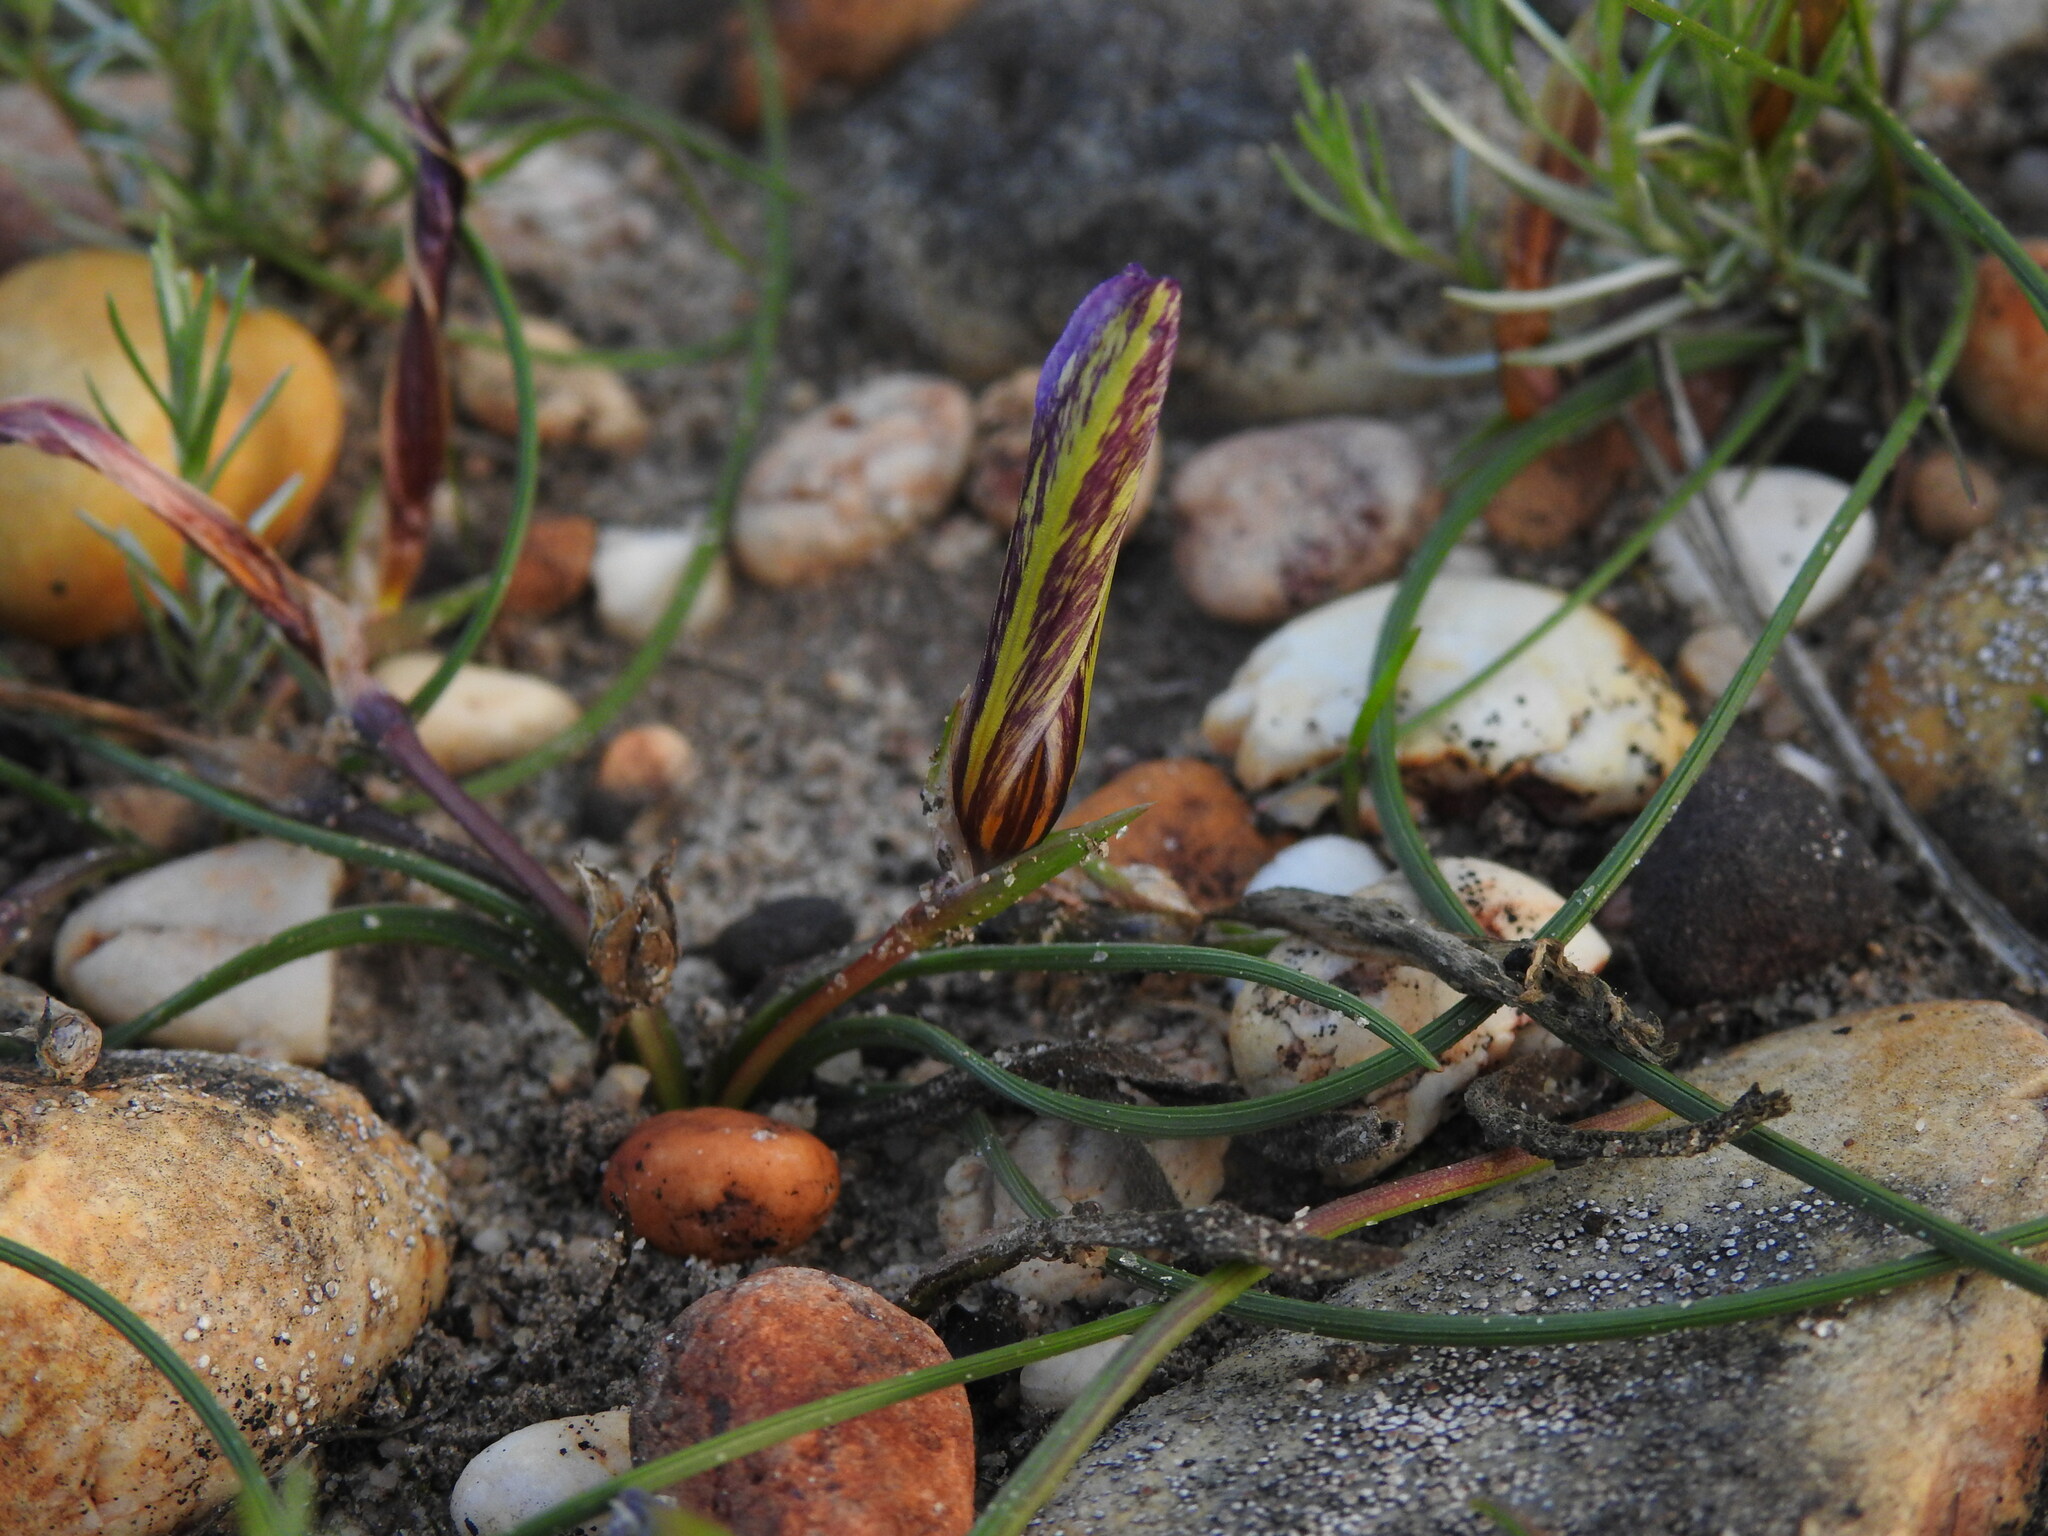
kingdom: Plantae
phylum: Tracheophyta
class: Liliopsida
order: Asparagales
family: Iridaceae
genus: Romulea
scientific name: Romulea bulbocodium
